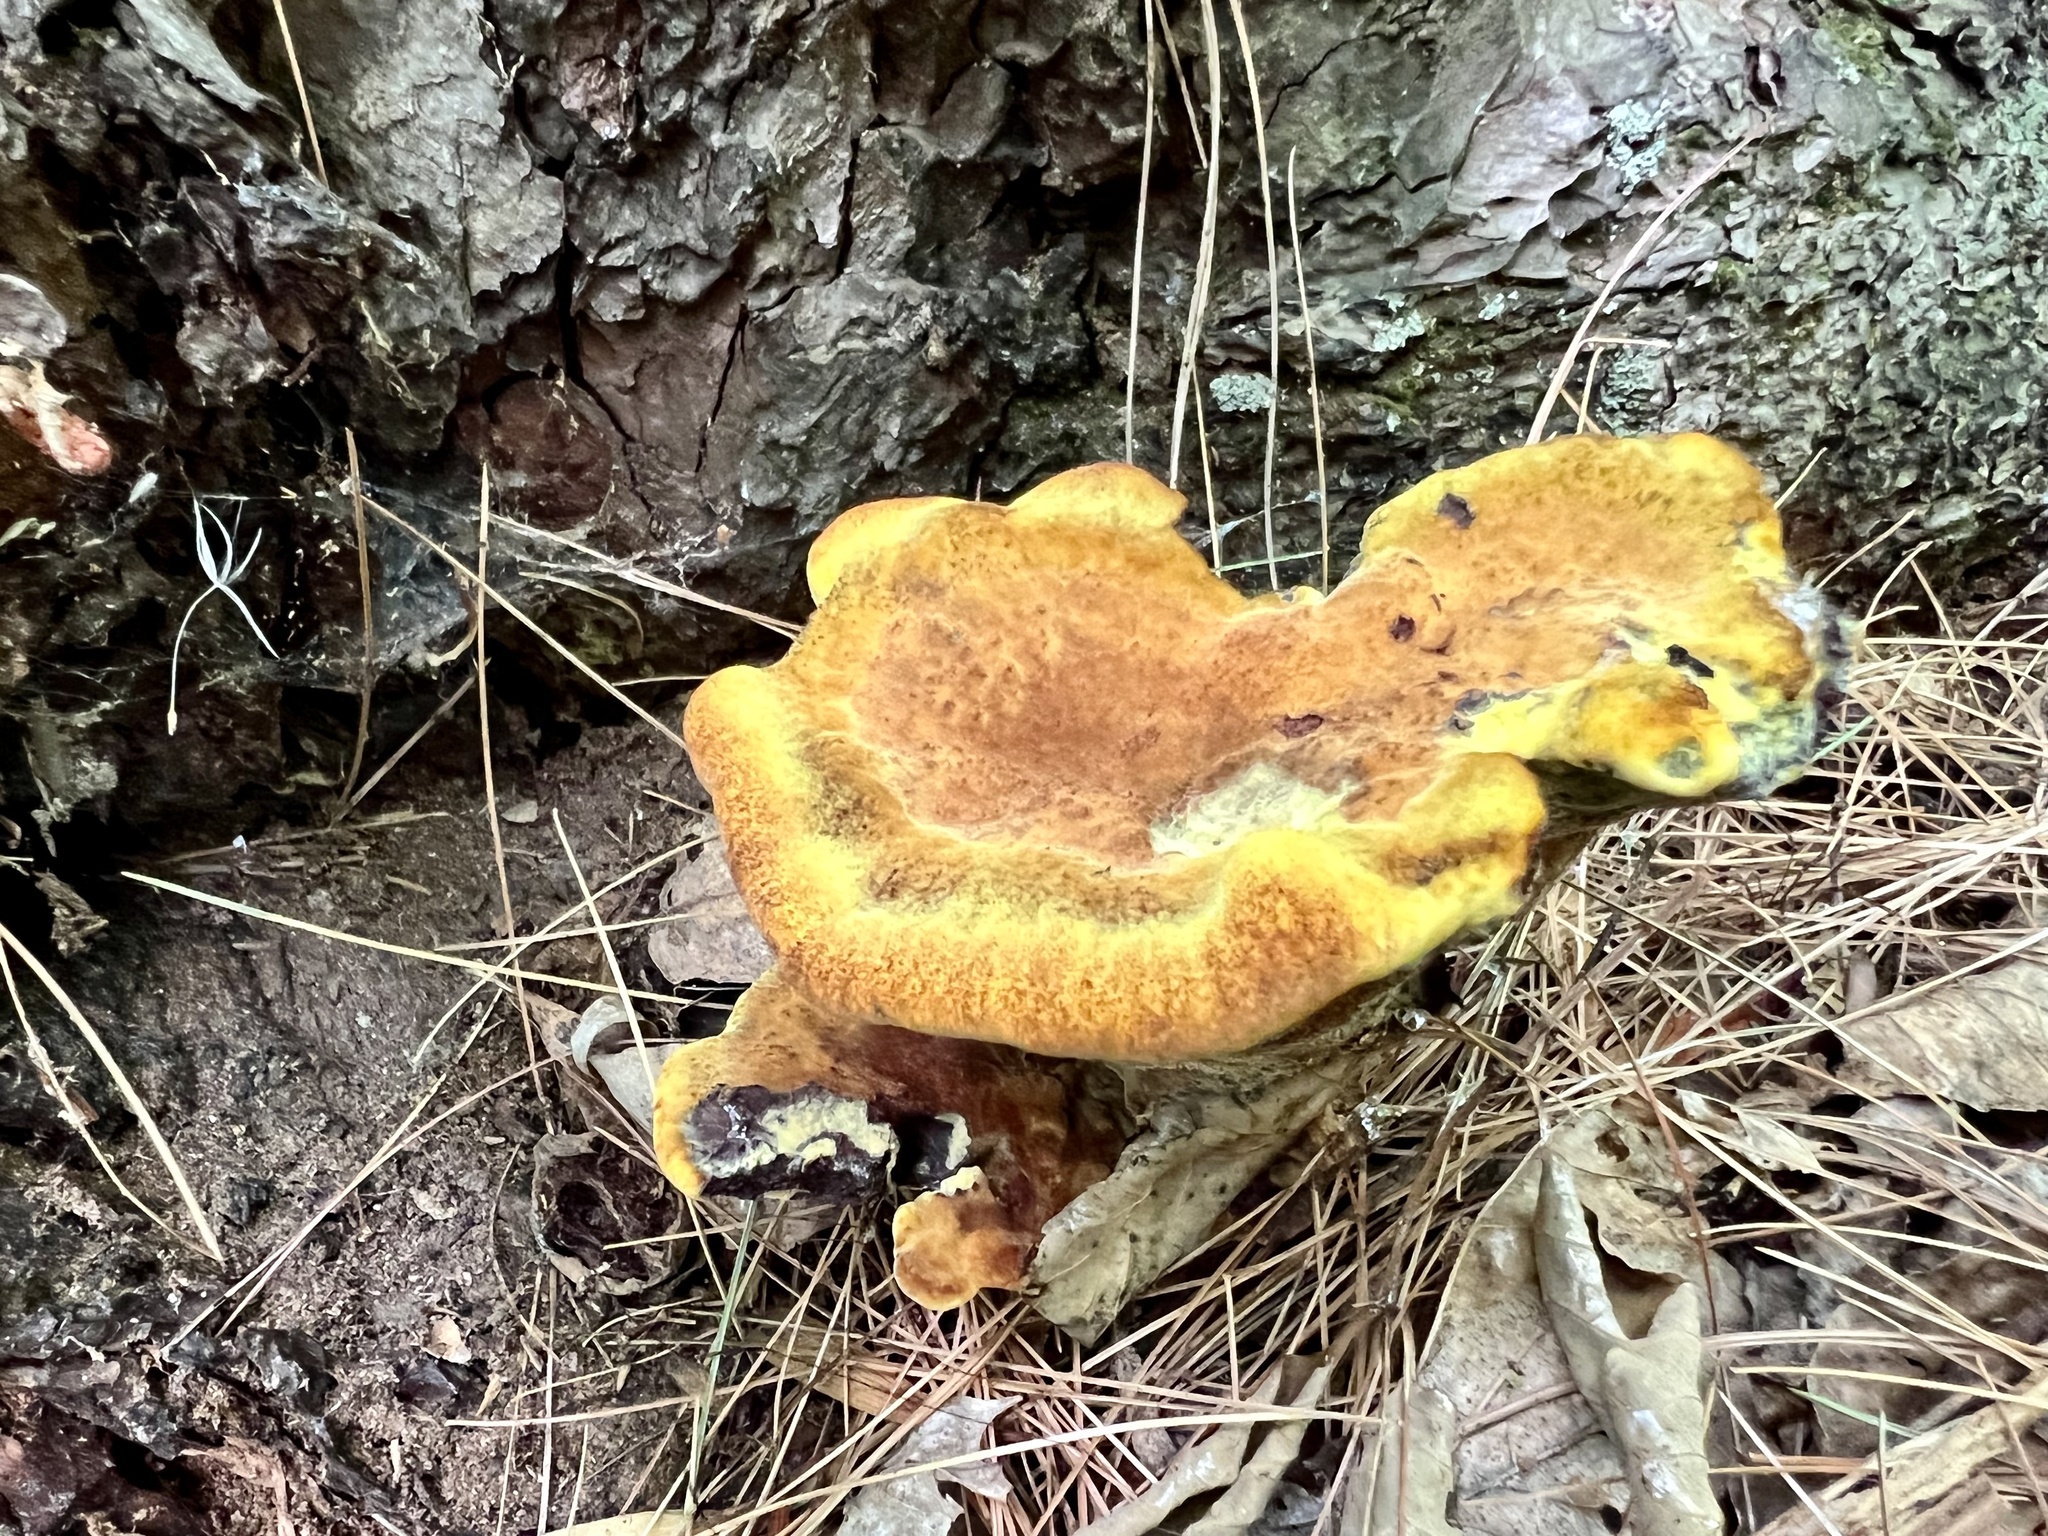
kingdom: Fungi
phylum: Basidiomycota
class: Agaricomycetes
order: Polyporales
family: Laetiporaceae
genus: Phaeolus
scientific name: Phaeolus schweinitzii
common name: Dyer's mazegill
